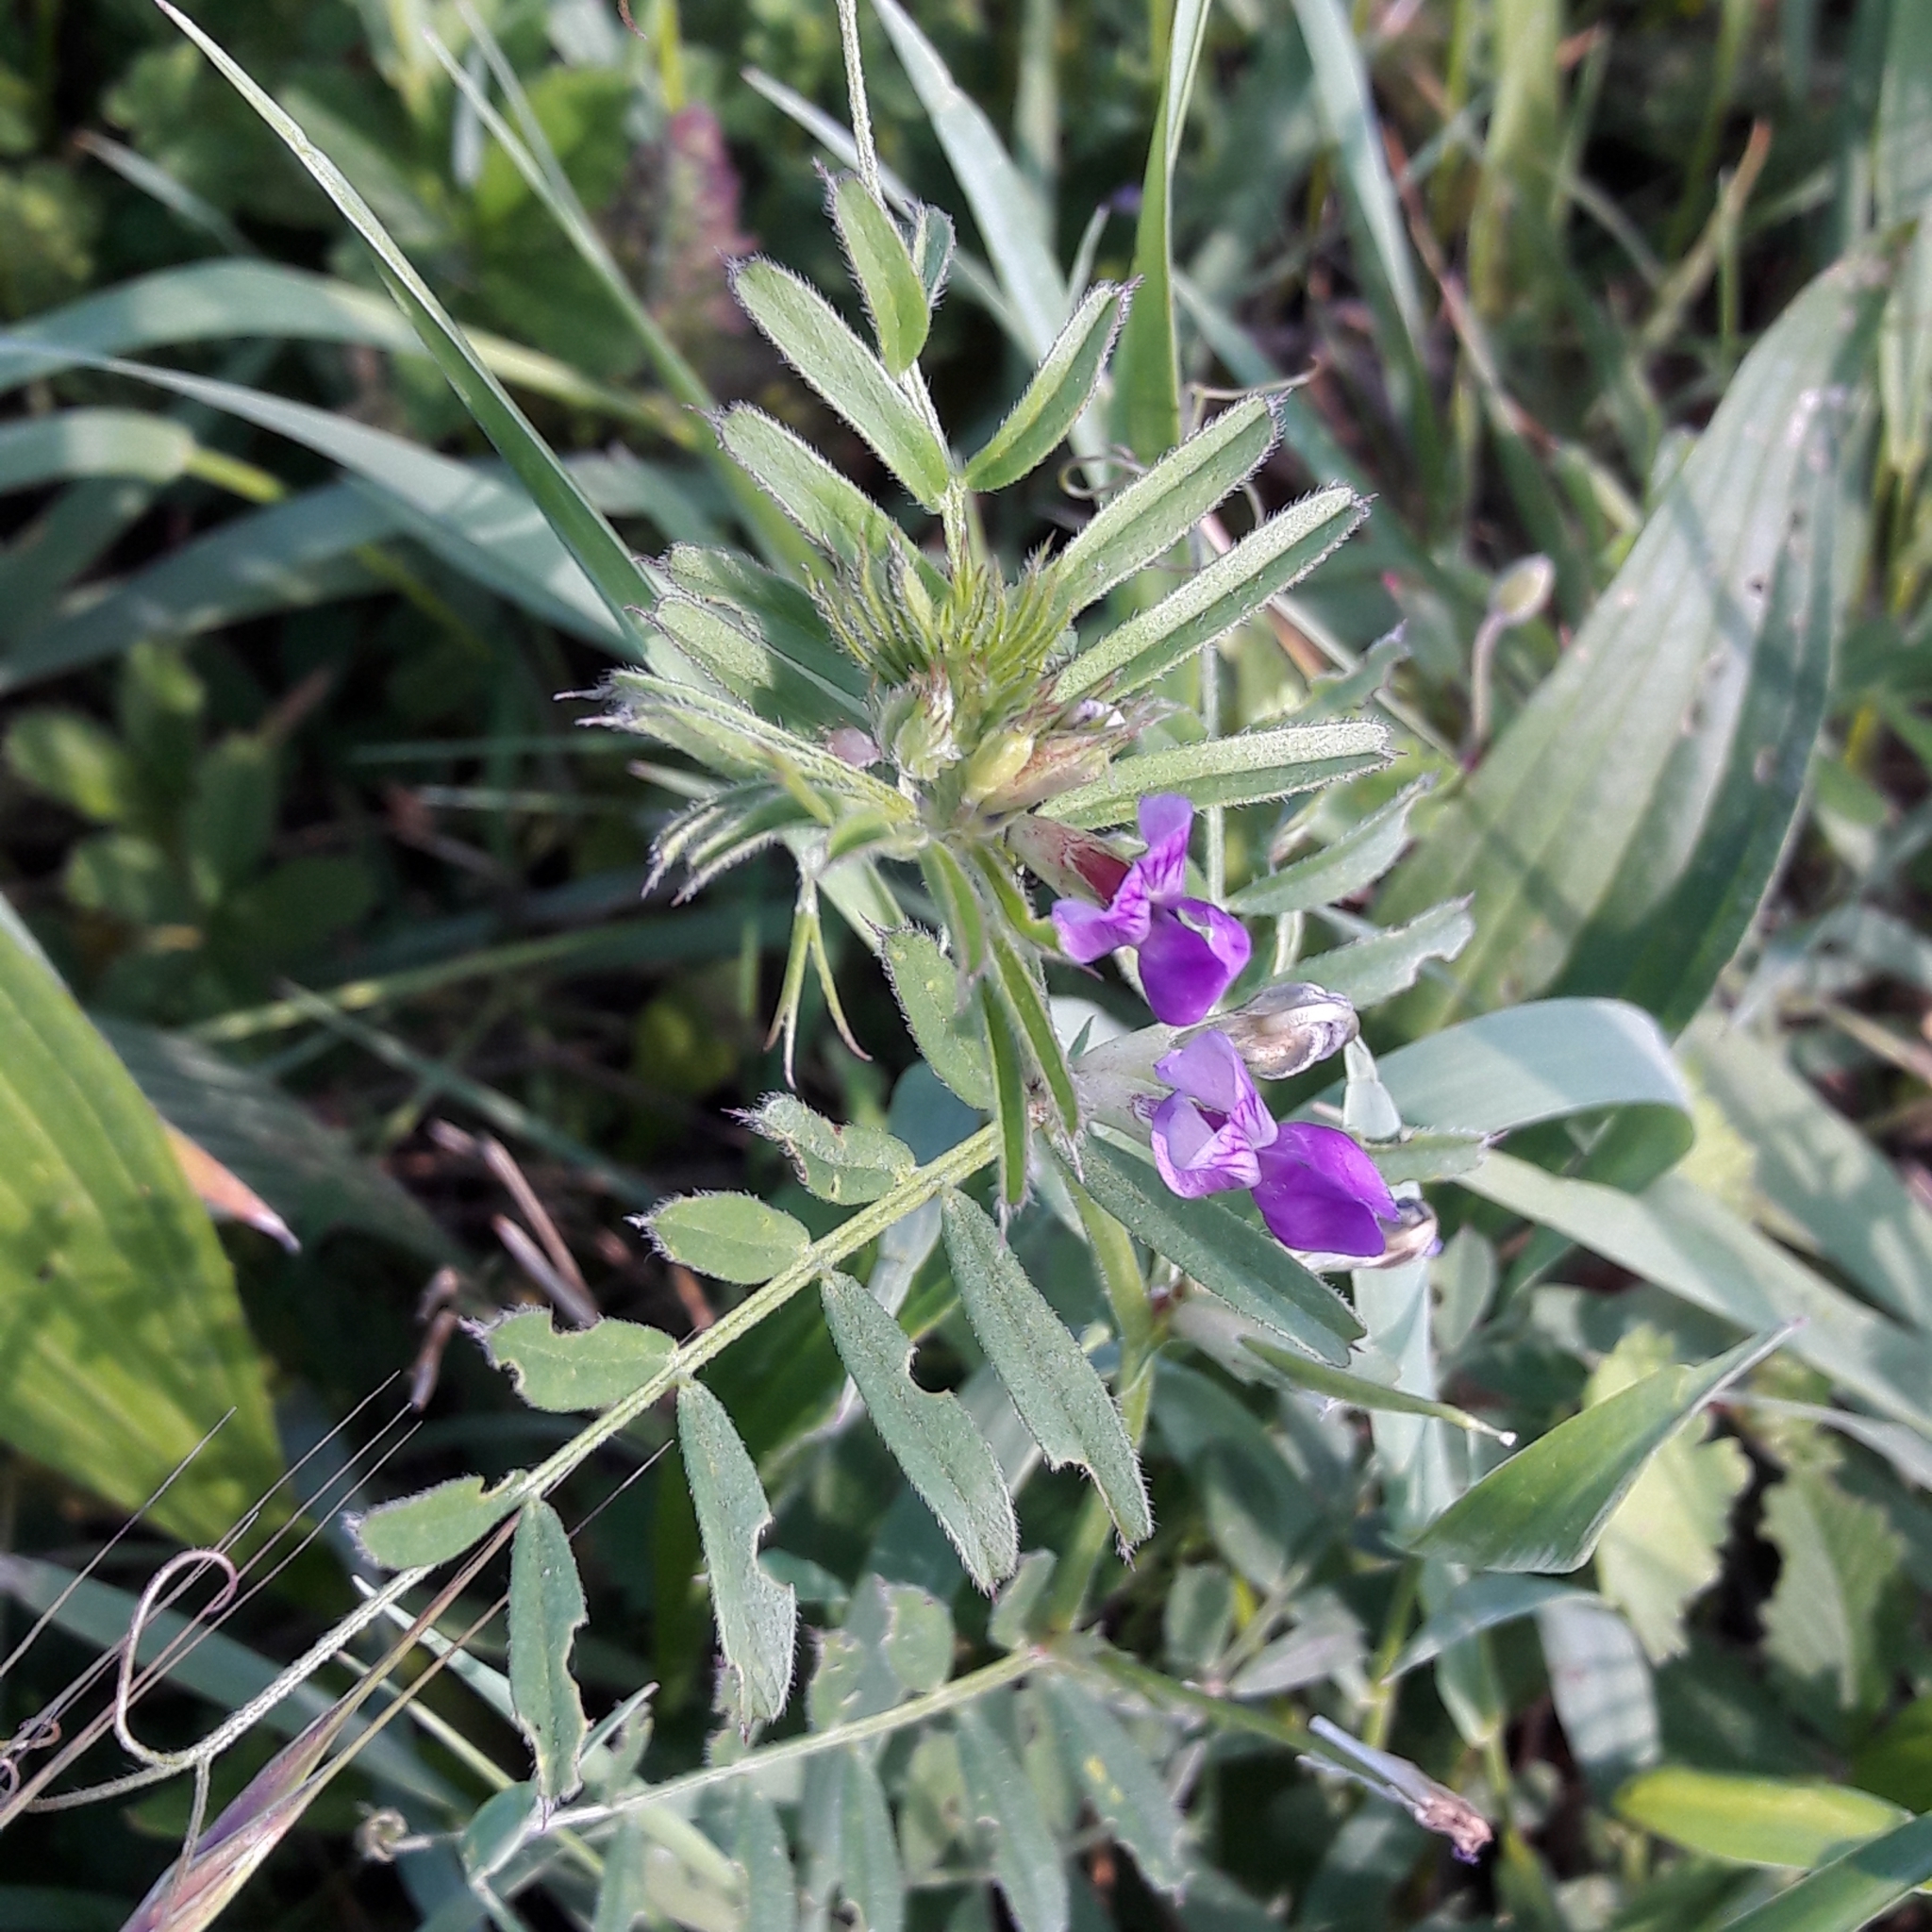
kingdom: Plantae
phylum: Tracheophyta
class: Magnoliopsida
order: Fabales
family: Fabaceae
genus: Vicia
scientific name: Vicia sativa
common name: Garden vetch
